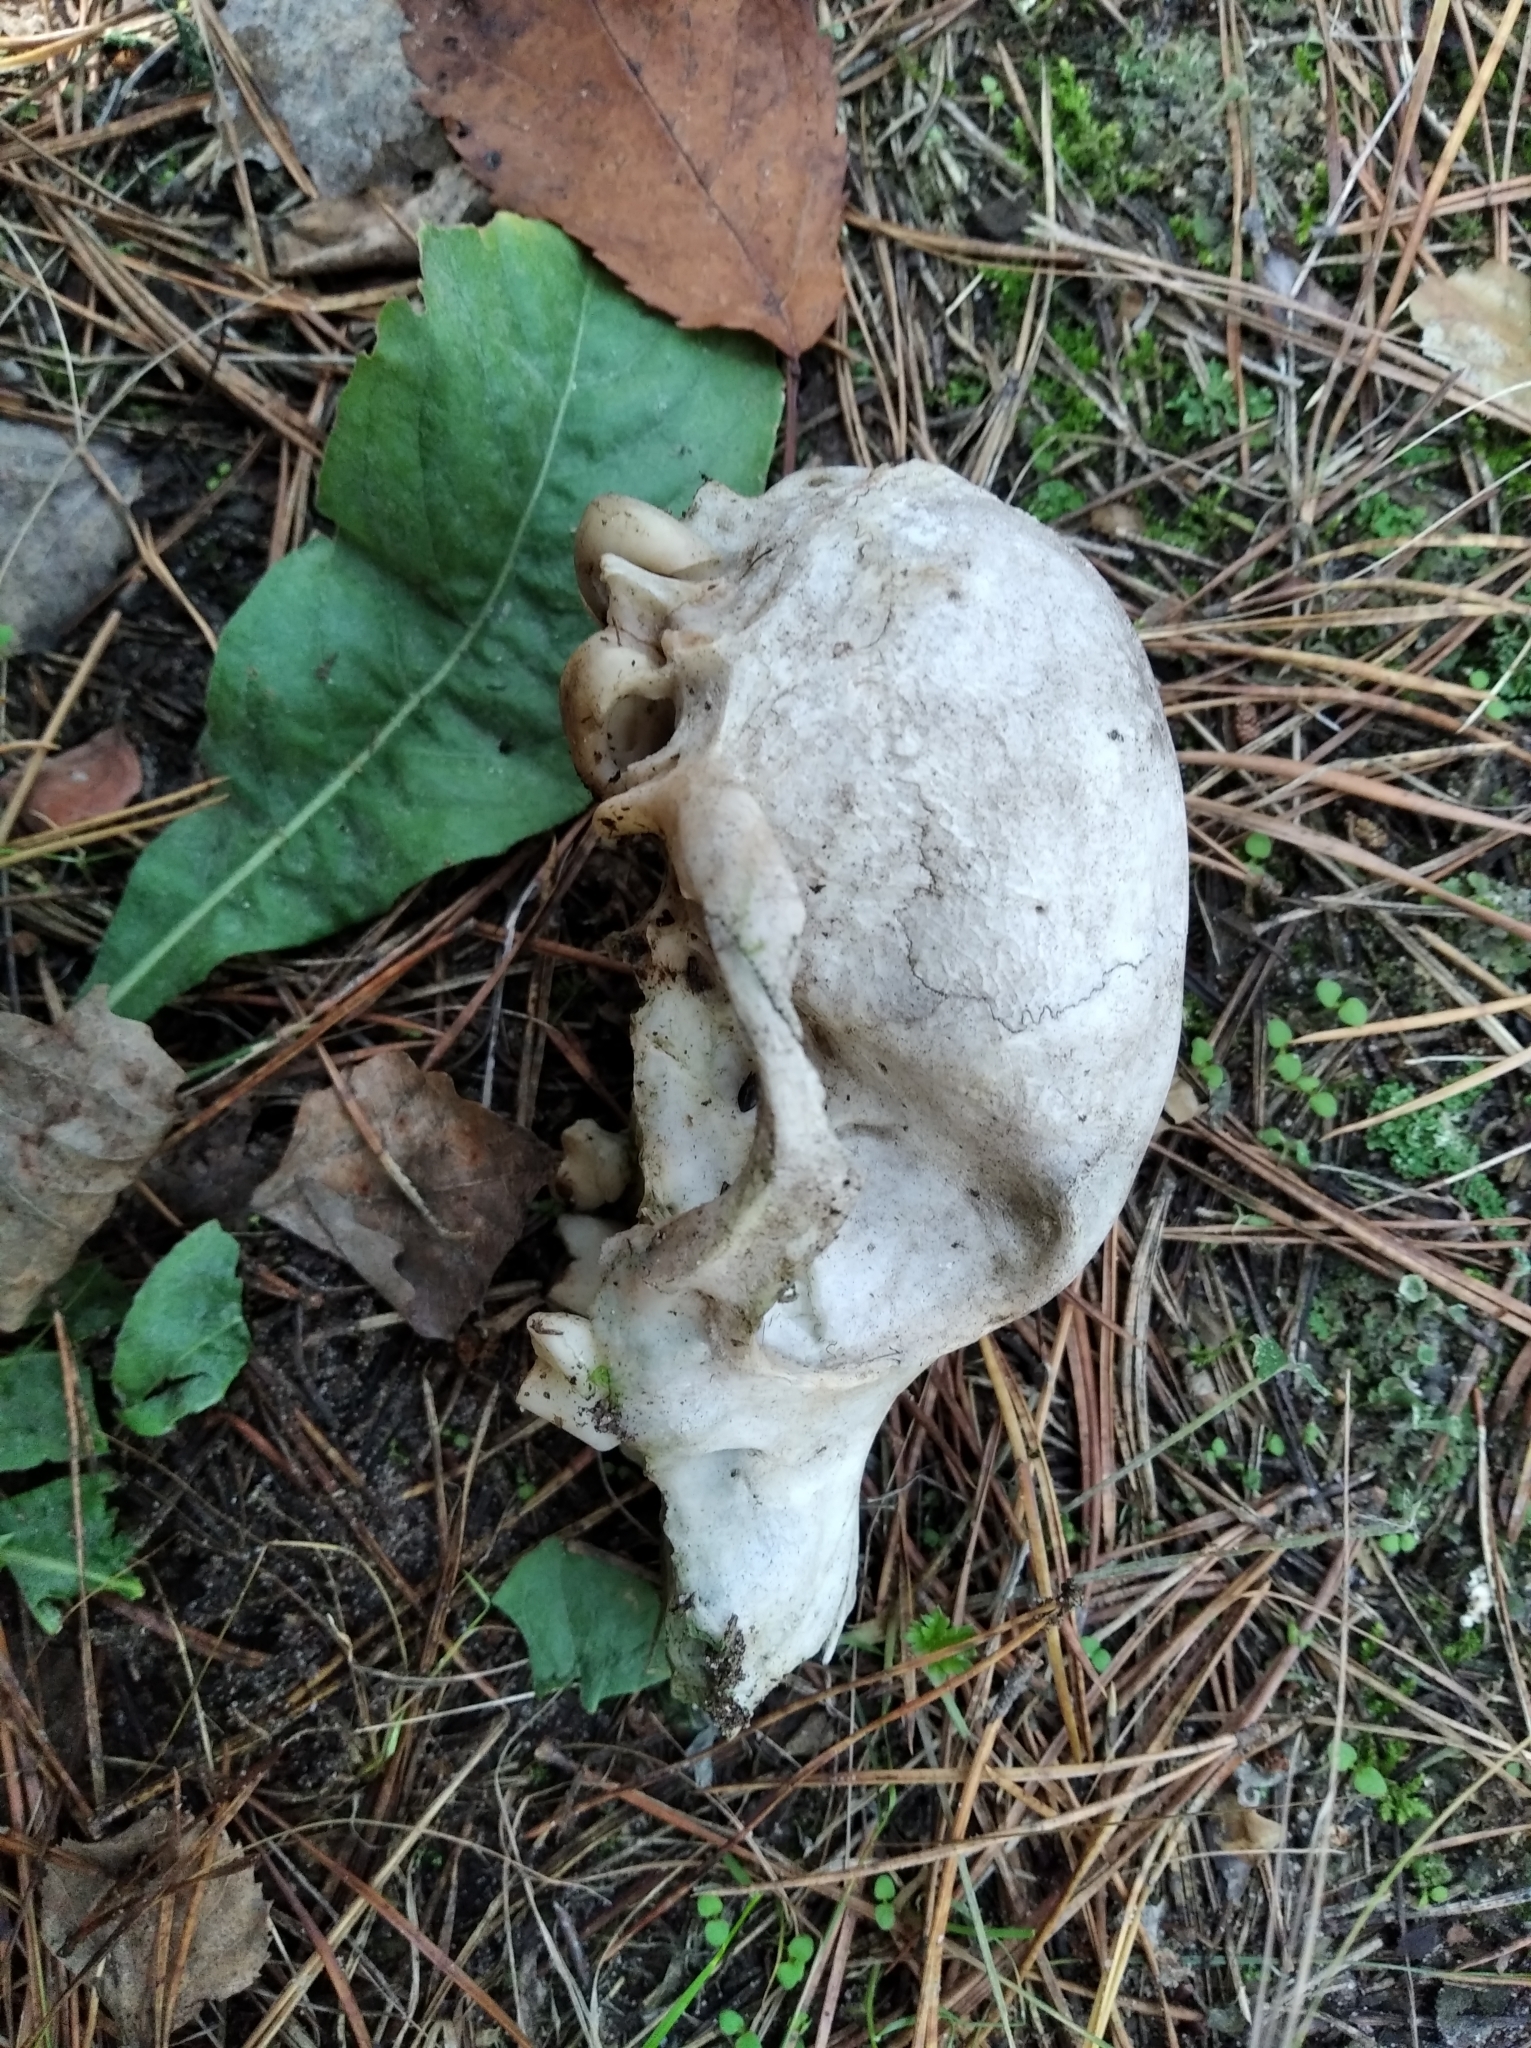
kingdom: Animalia
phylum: Chordata
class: Mammalia
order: Carnivora
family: Canidae
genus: Canis
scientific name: Canis lupus
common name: Gray wolf
